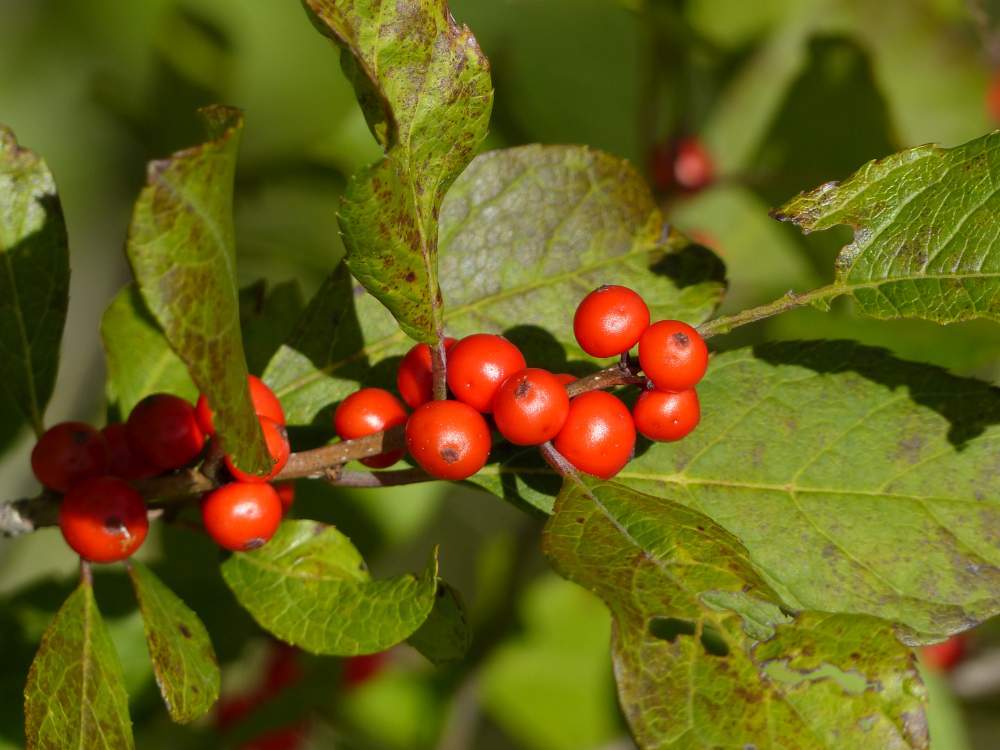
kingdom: Plantae
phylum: Tracheophyta
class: Magnoliopsida
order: Aquifoliales
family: Aquifoliaceae
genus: Ilex
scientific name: Ilex verticillata
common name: Virginia winterberry
